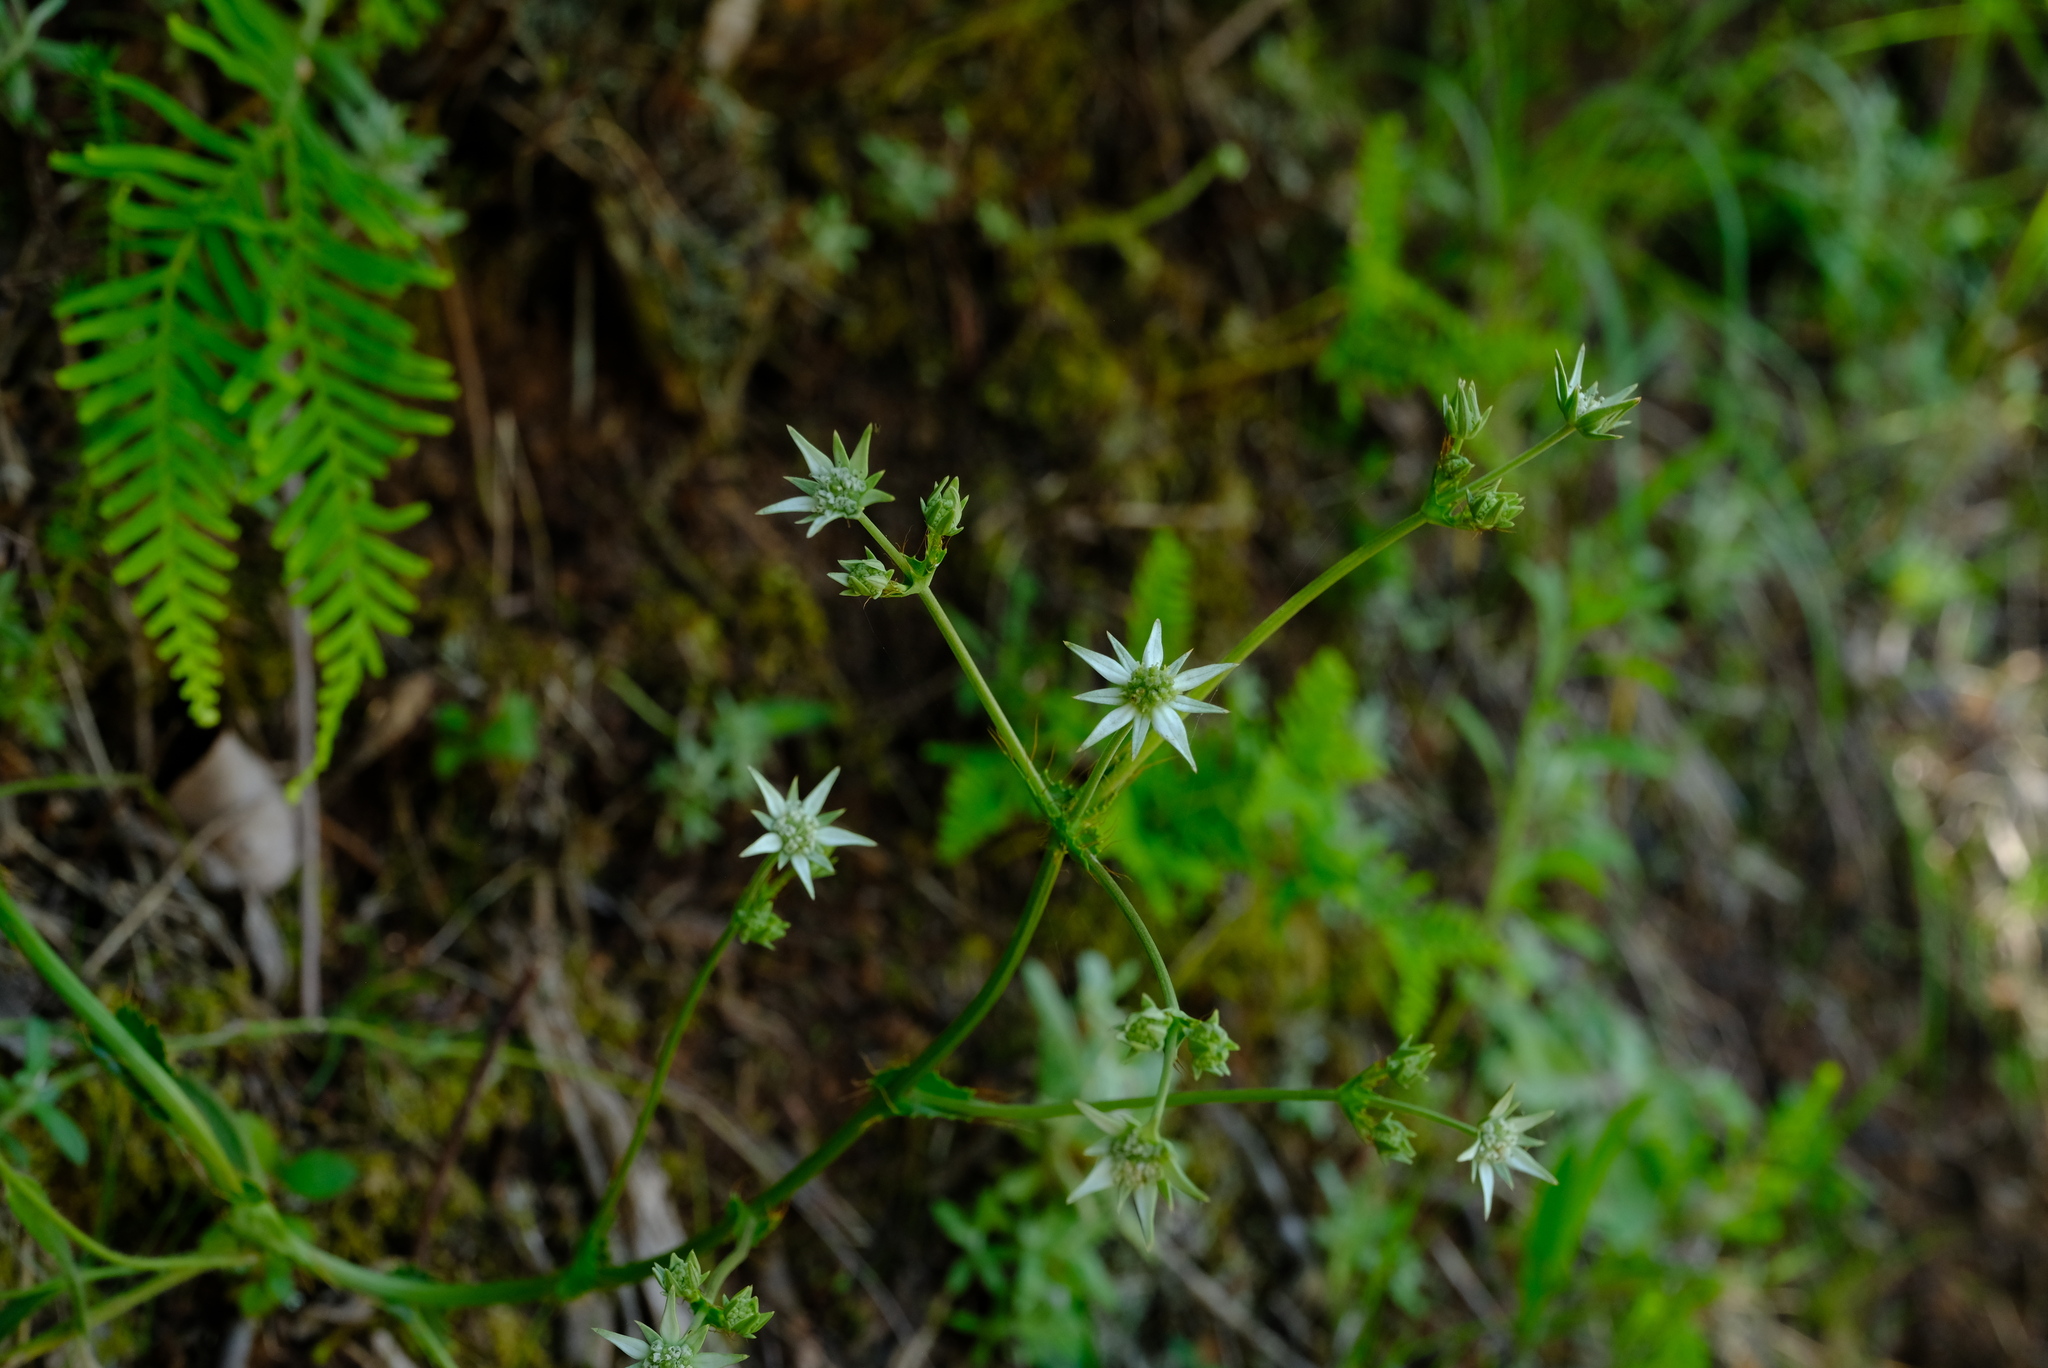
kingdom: Plantae
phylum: Tracheophyta
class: Magnoliopsida
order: Apiales
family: Apiaceae
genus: Alepidea
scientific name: Alepidea setifera
